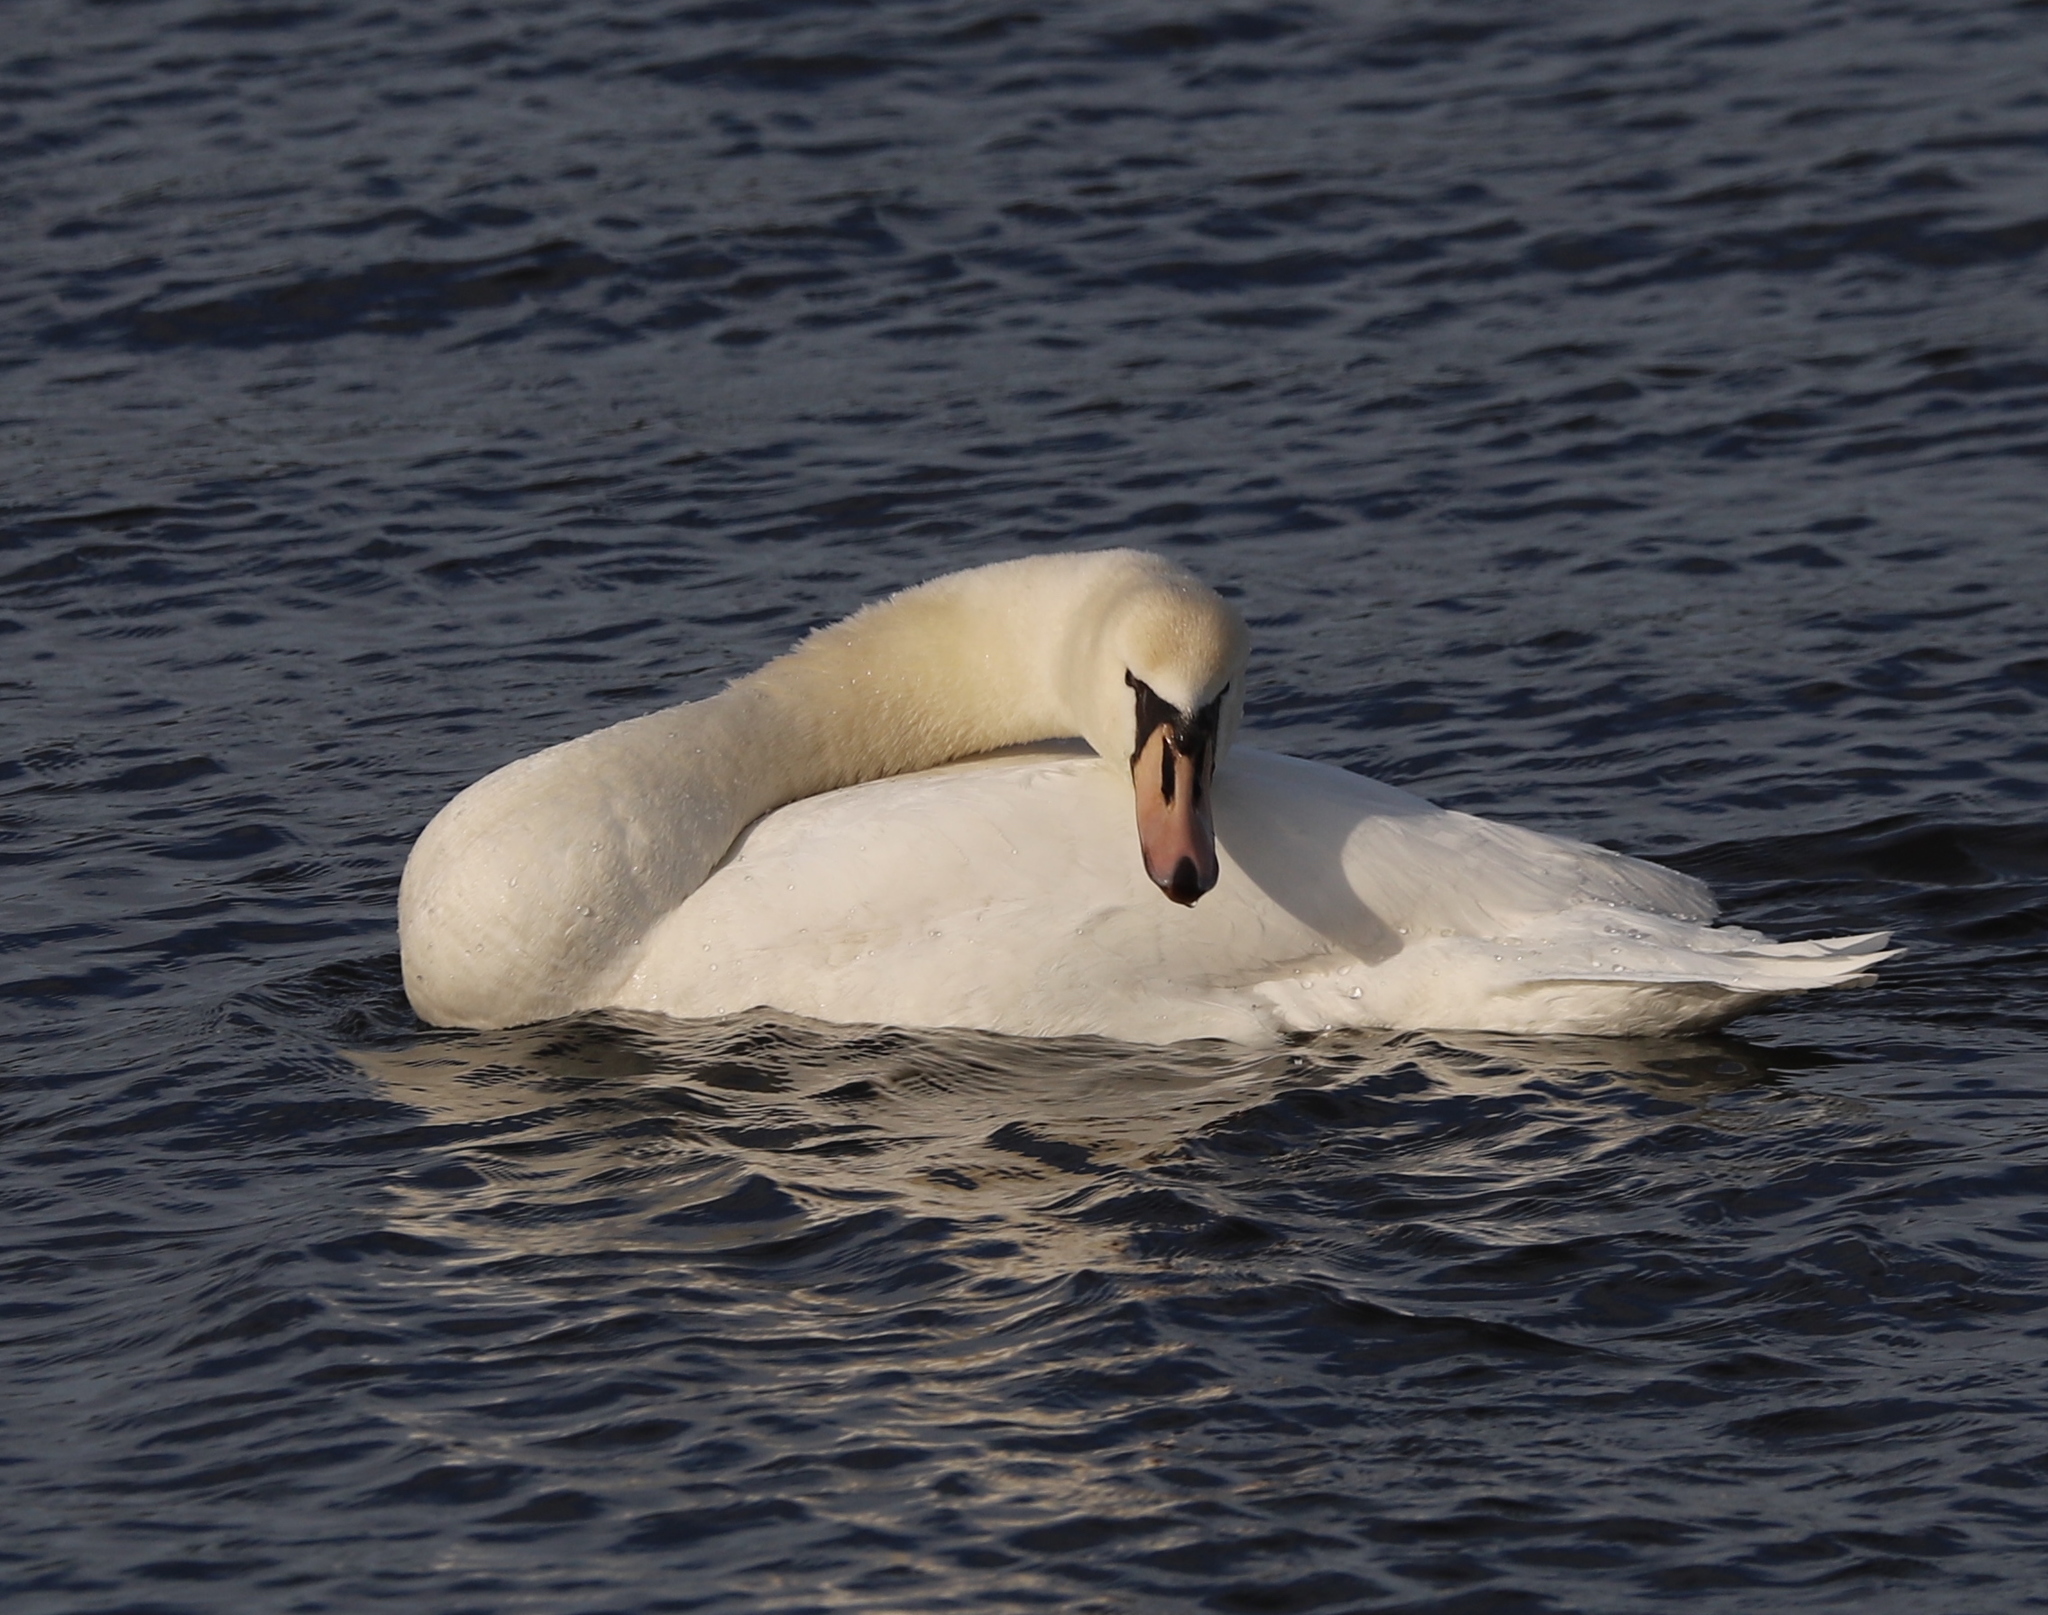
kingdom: Animalia
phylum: Chordata
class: Aves
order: Anseriformes
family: Anatidae
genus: Cygnus
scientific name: Cygnus olor
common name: Mute swan
